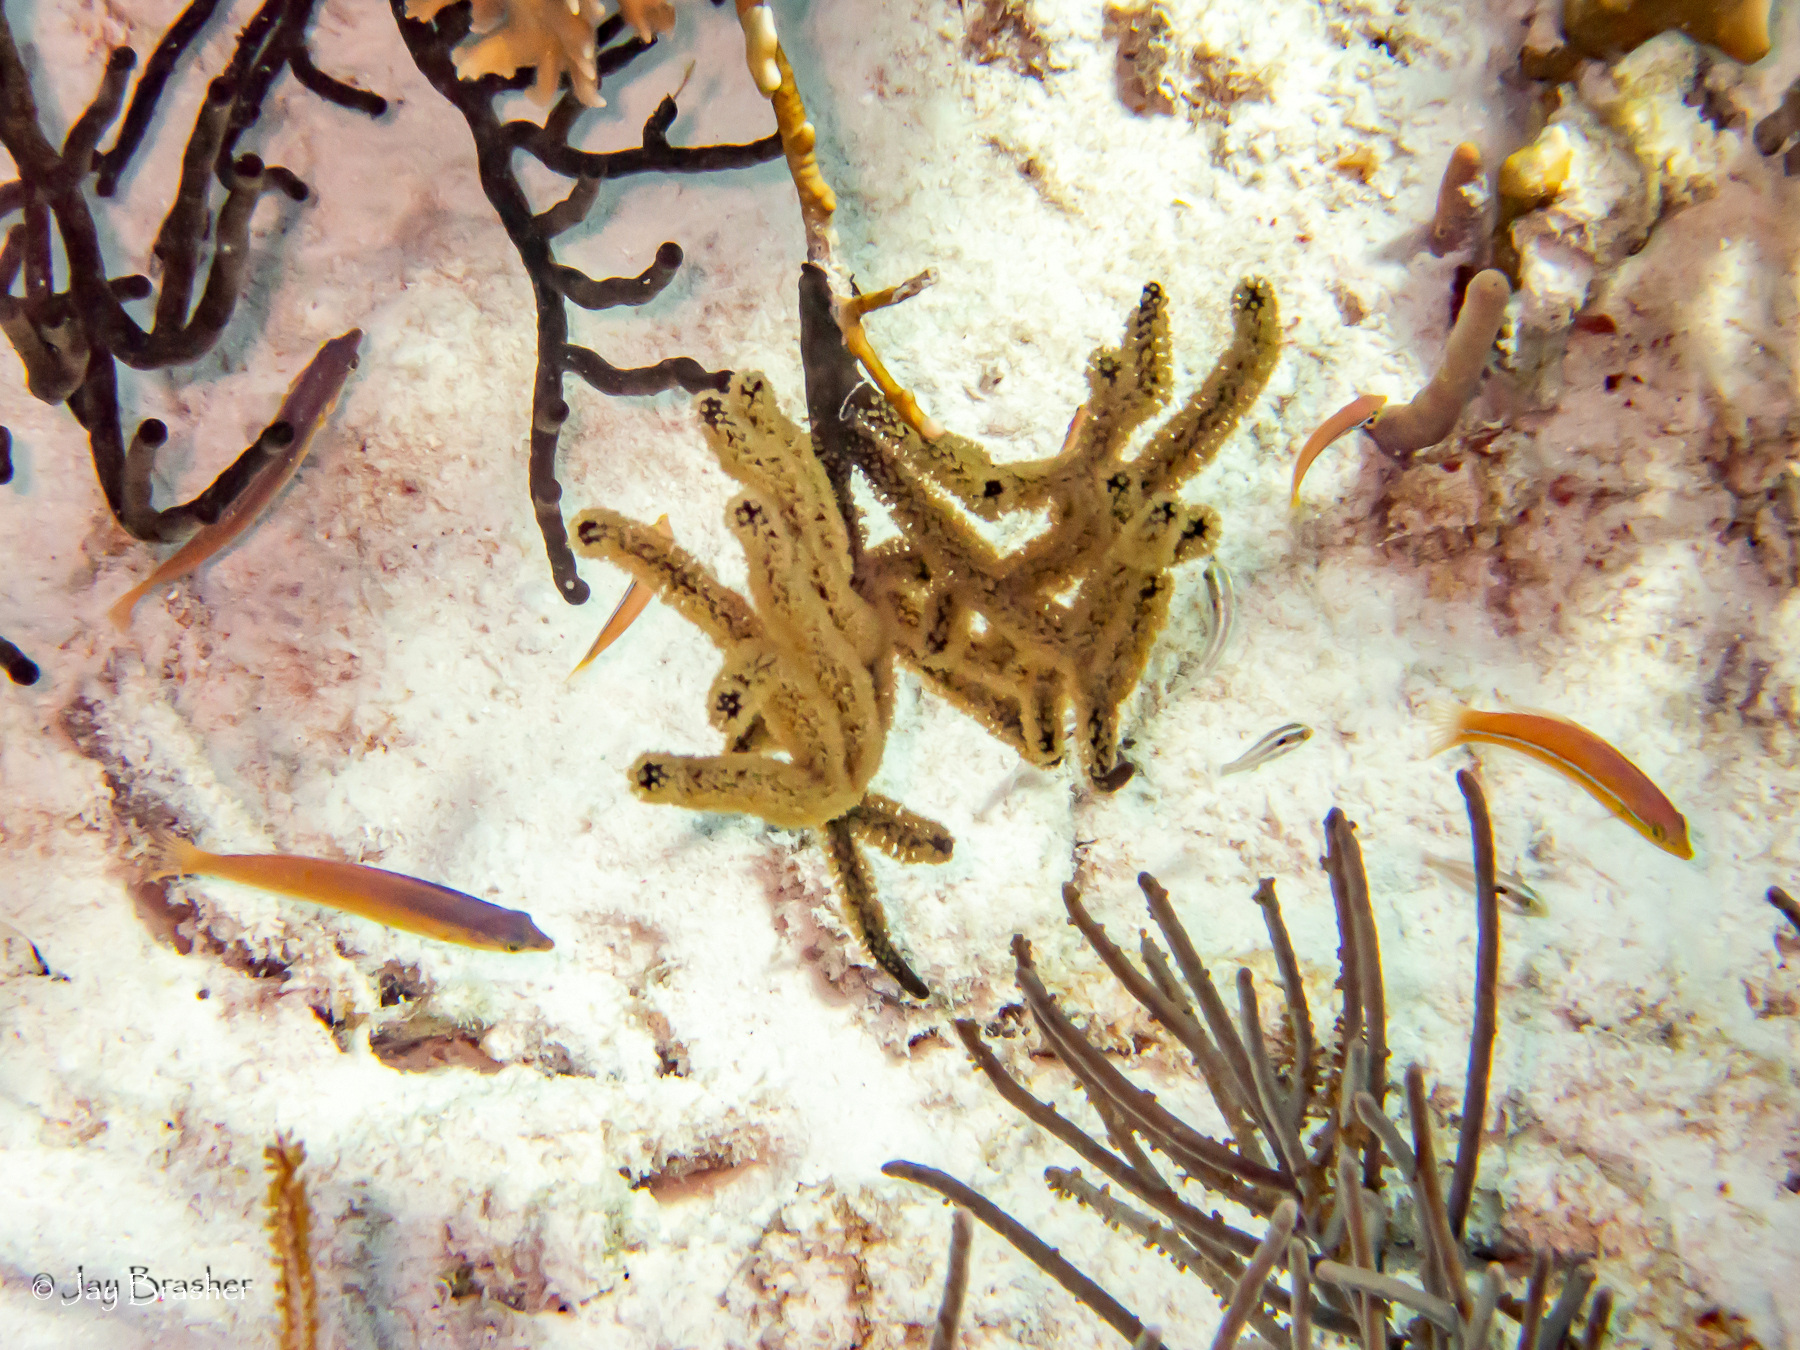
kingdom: Animalia
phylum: Chordata
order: Perciformes
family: Labridae
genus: Halichoeres
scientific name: Halichoeres garnoti
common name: Yellowhead wrasse
